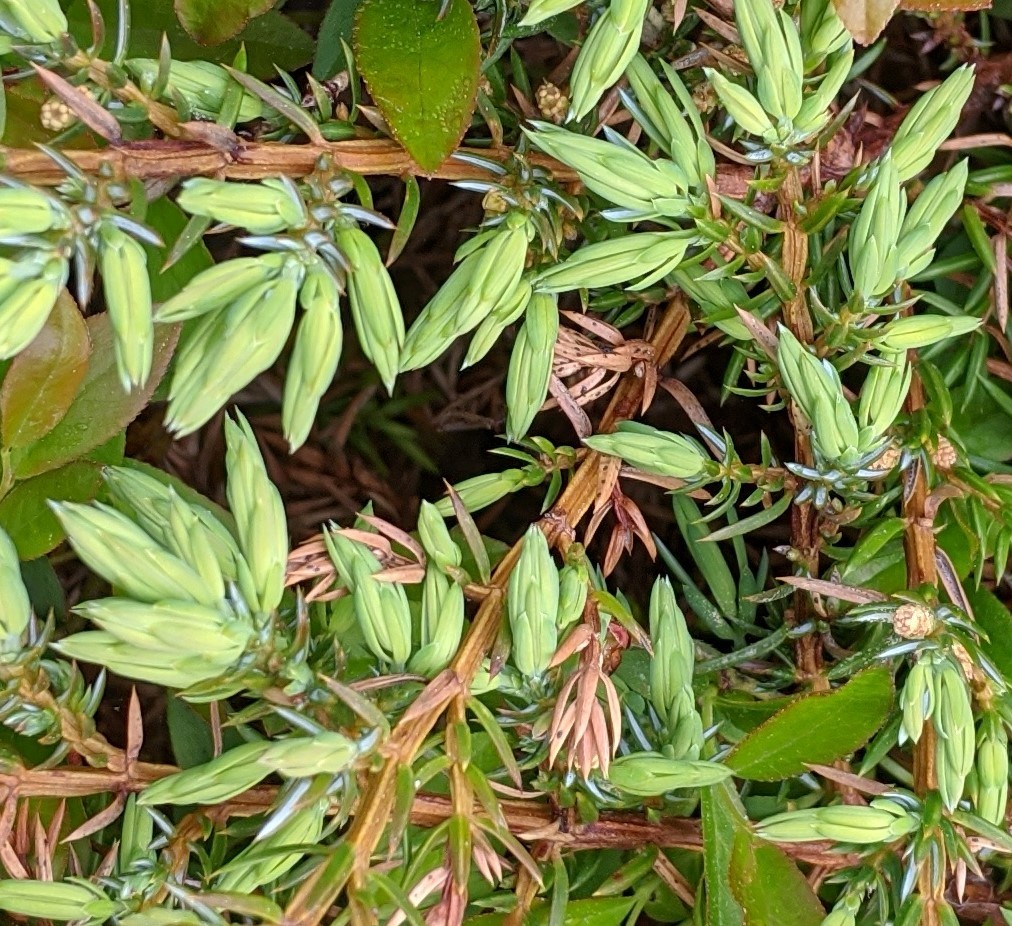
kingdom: Plantae
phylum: Tracheophyta
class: Pinopsida
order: Pinales
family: Cupressaceae
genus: Juniperus
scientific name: Juniperus communis
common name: Common juniper
